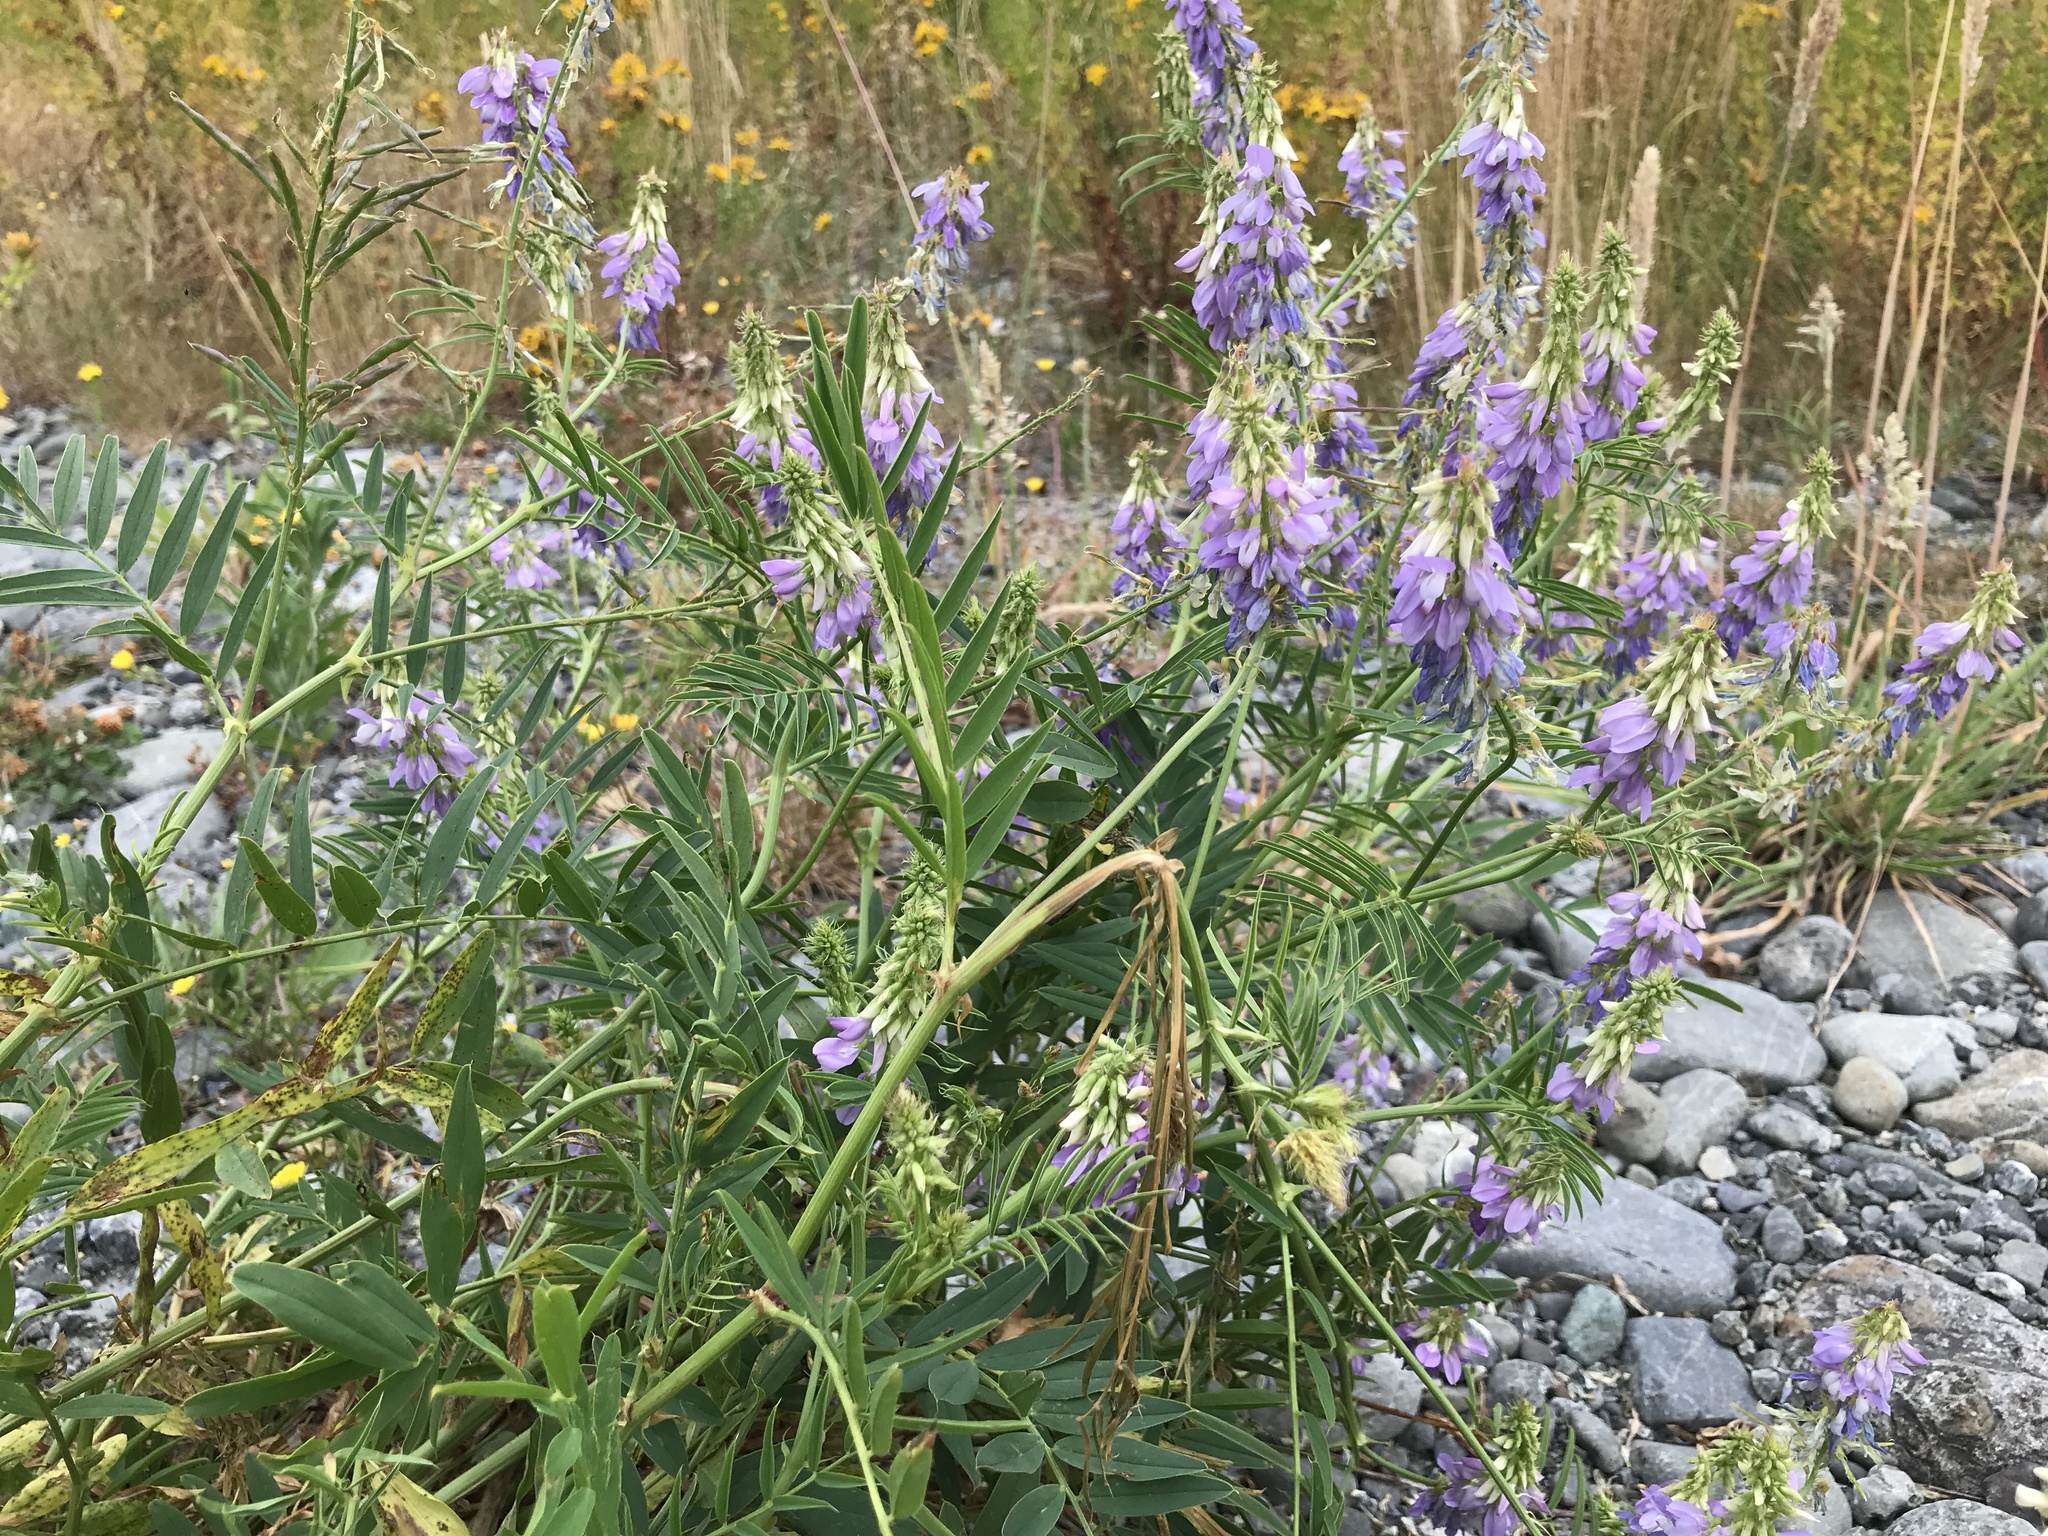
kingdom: Plantae
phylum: Tracheophyta
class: Magnoliopsida
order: Fabales
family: Fabaceae
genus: Galega
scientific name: Galega officinalis
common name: Goat's-rue
